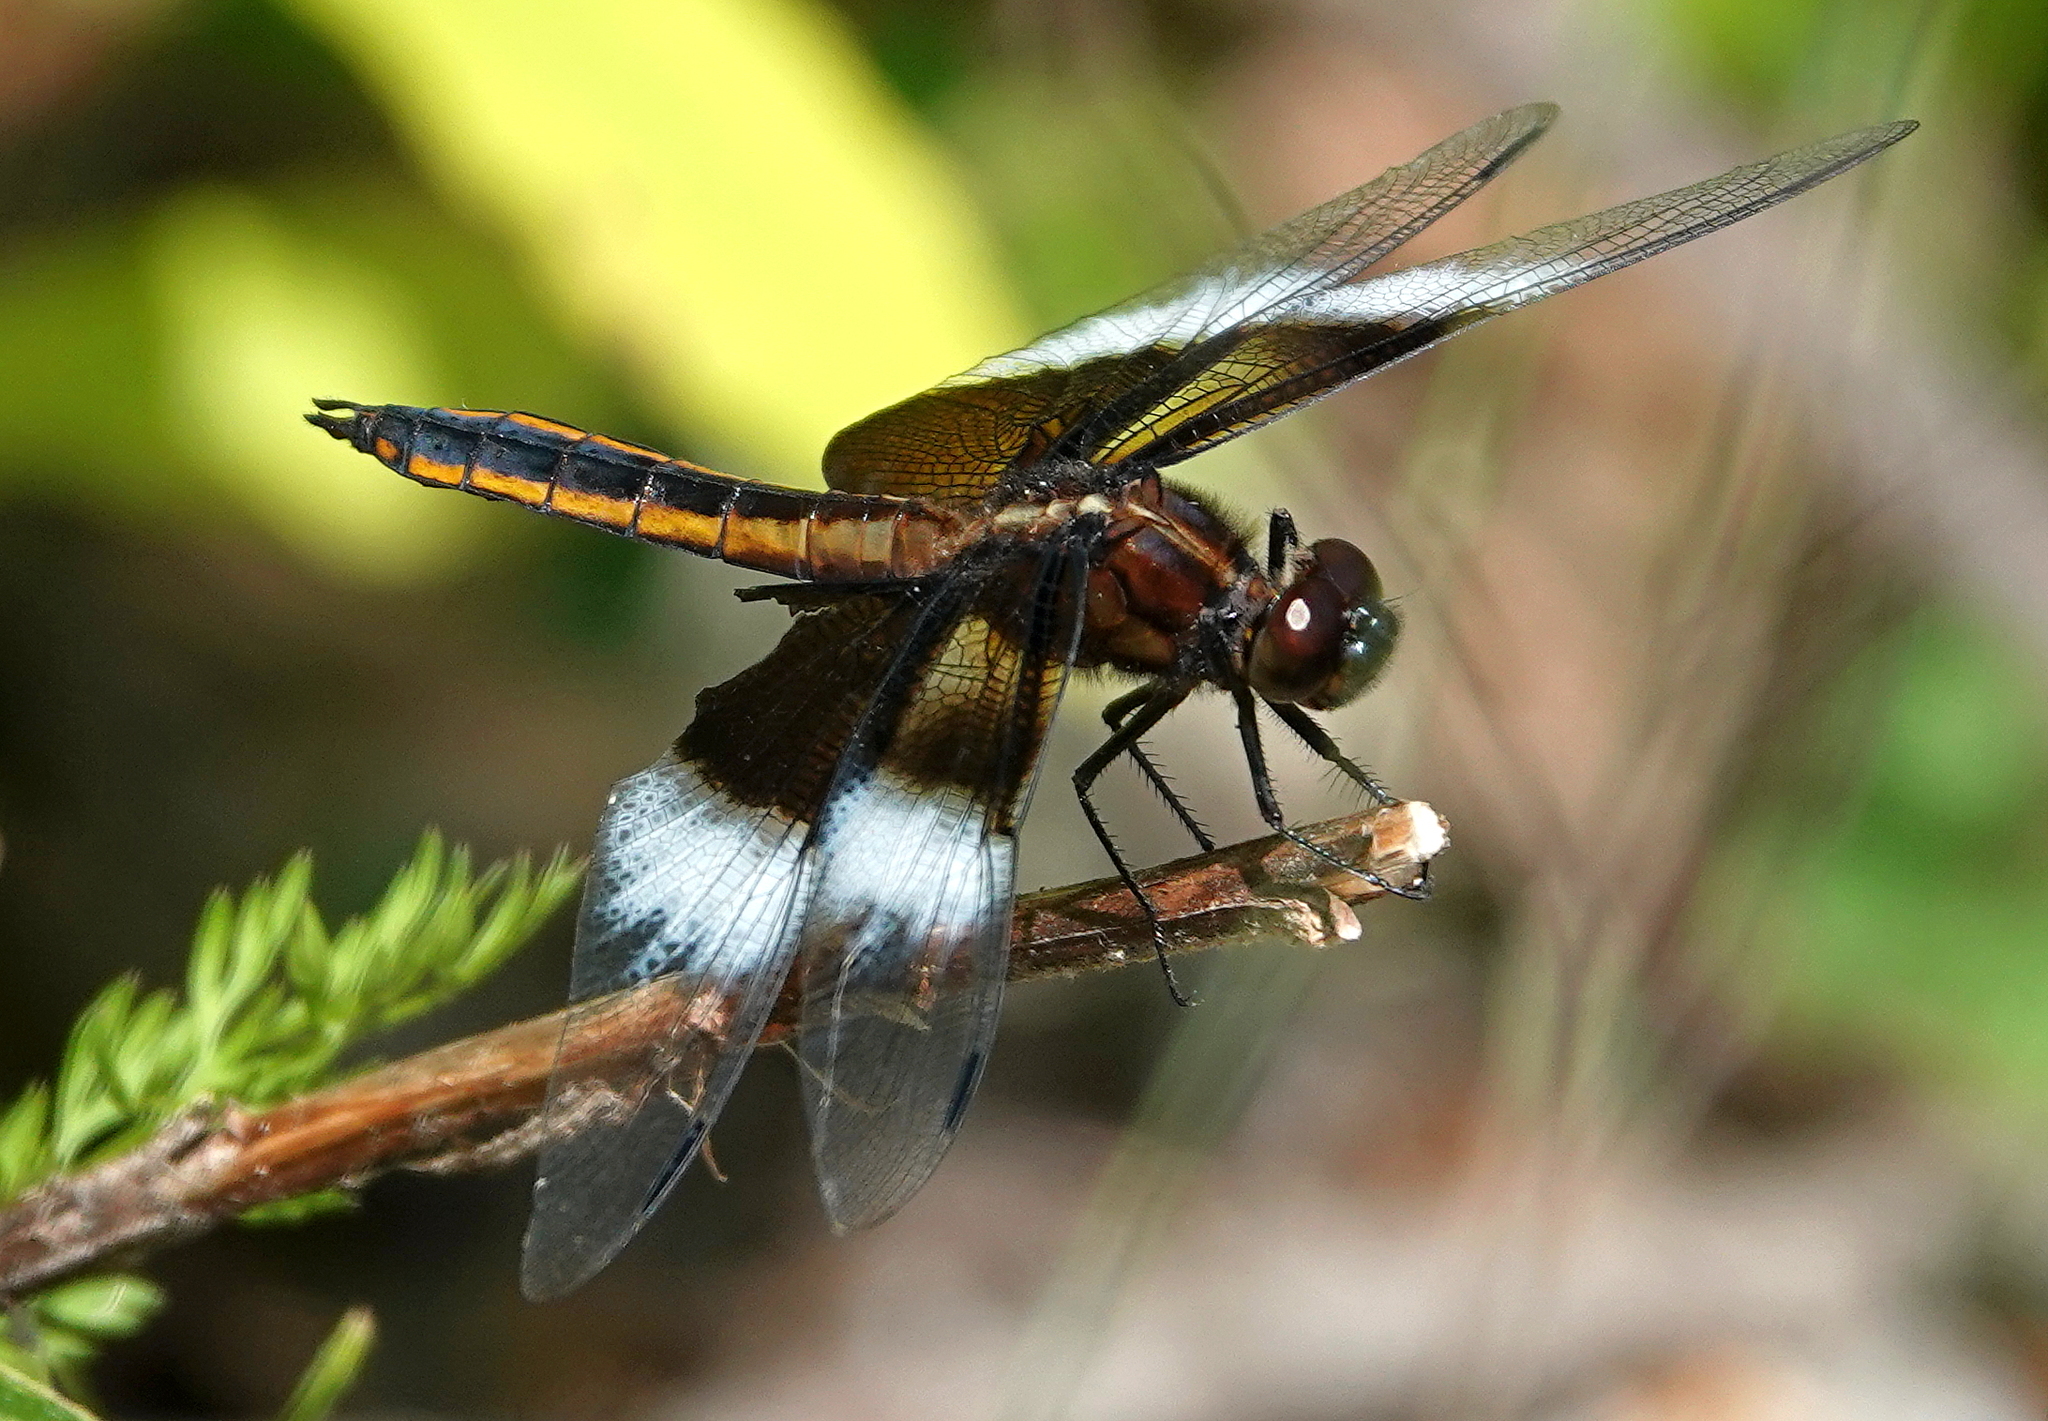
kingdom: Animalia
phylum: Arthropoda
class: Insecta
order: Odonata
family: Libellulidae
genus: Libellula
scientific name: Libellula luctuosa
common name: Widow skimmer
